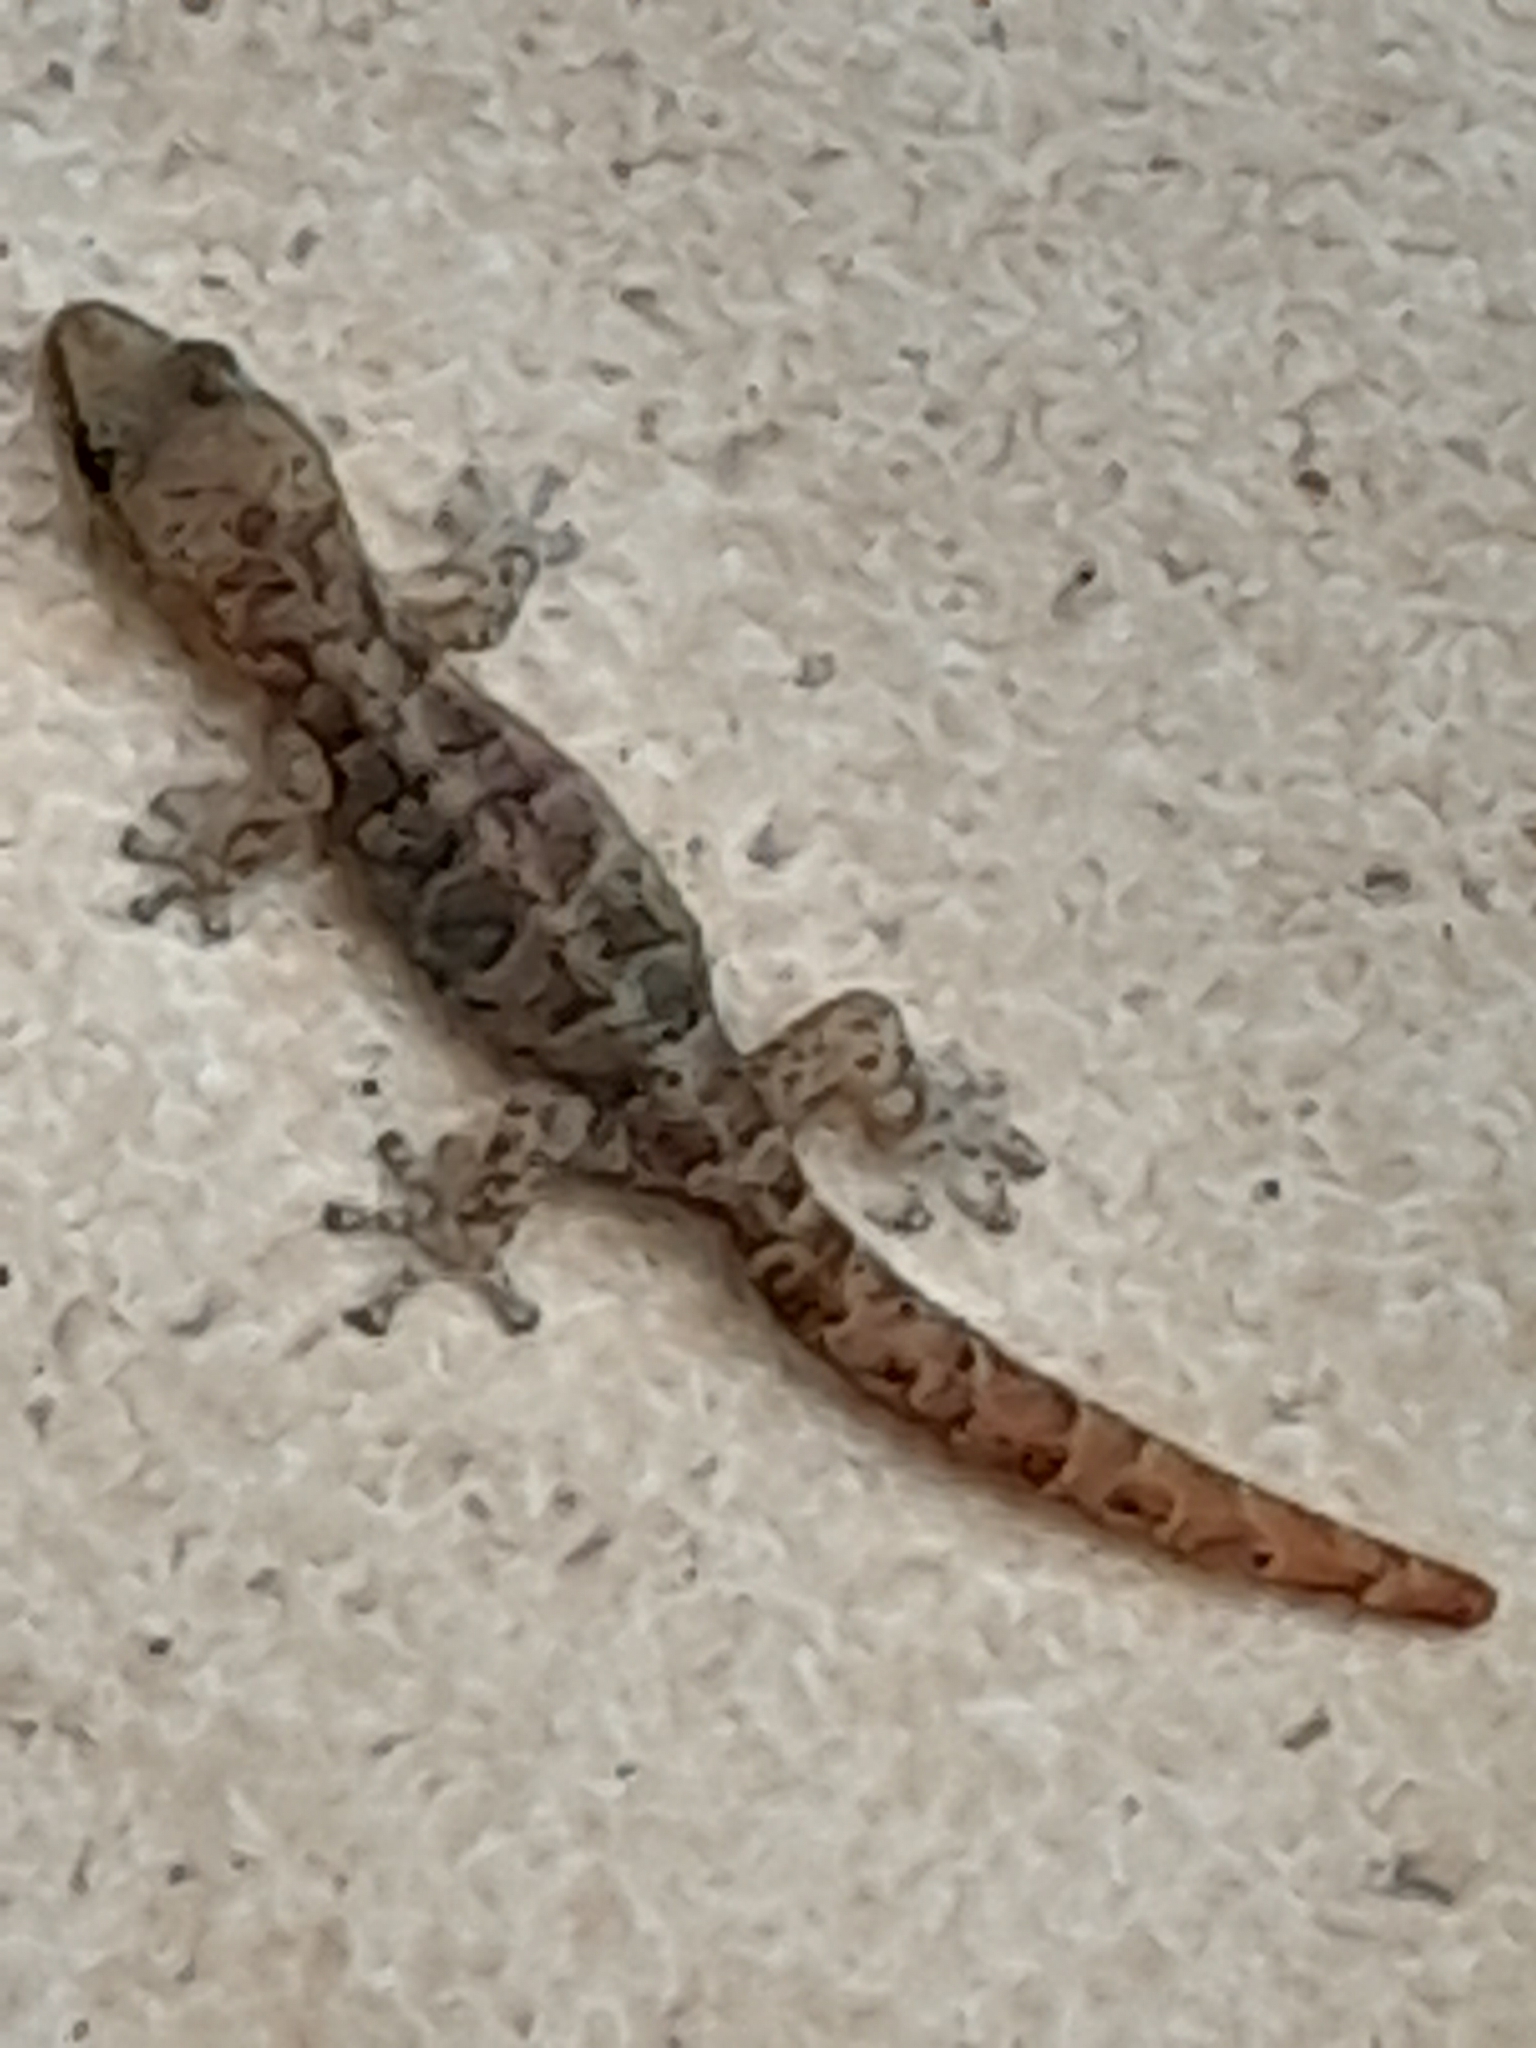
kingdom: Animalia
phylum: Chordata
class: Squamata
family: Gekkonidae
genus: Afrogecko
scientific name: Afrogecko porphyreus
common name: Marbled leaf-toed gecko
